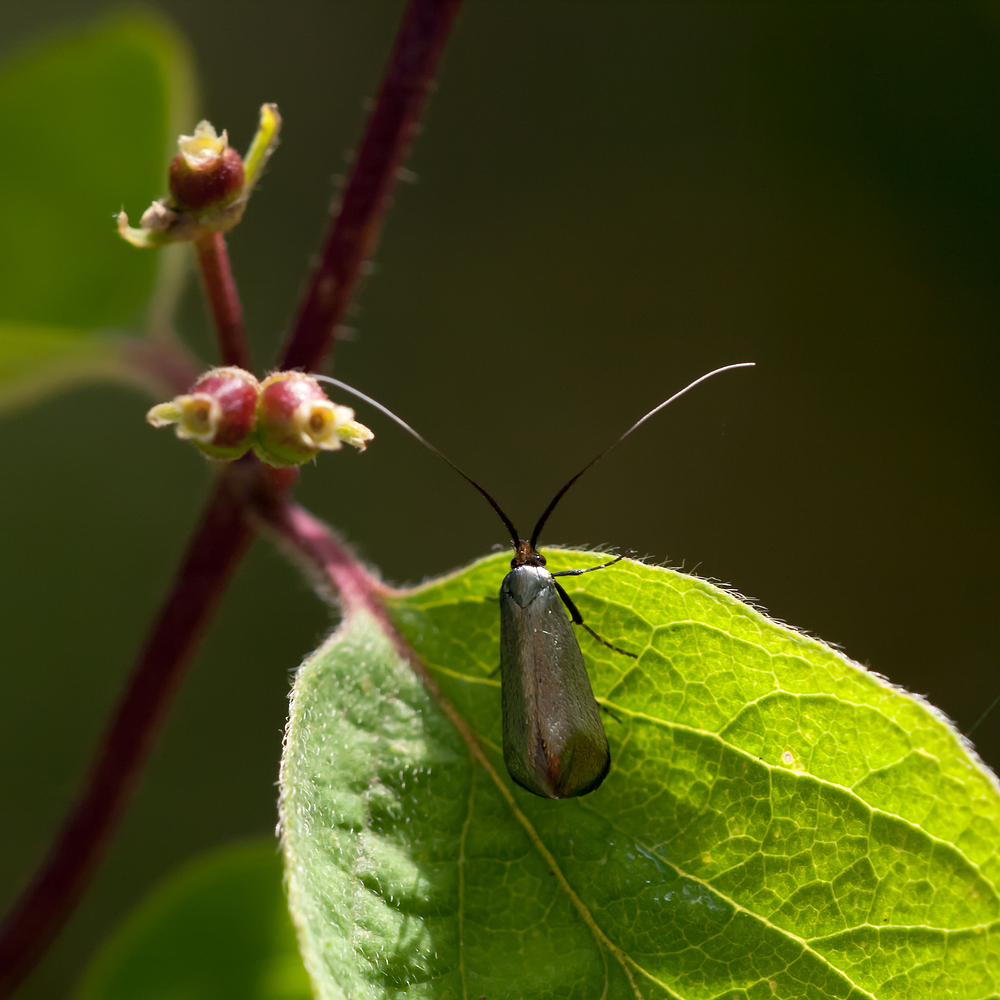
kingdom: Animalia
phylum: Arthropoda
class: Insecta
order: Lepidoptera
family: Adelidae
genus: Adela
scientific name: Adela viridella
